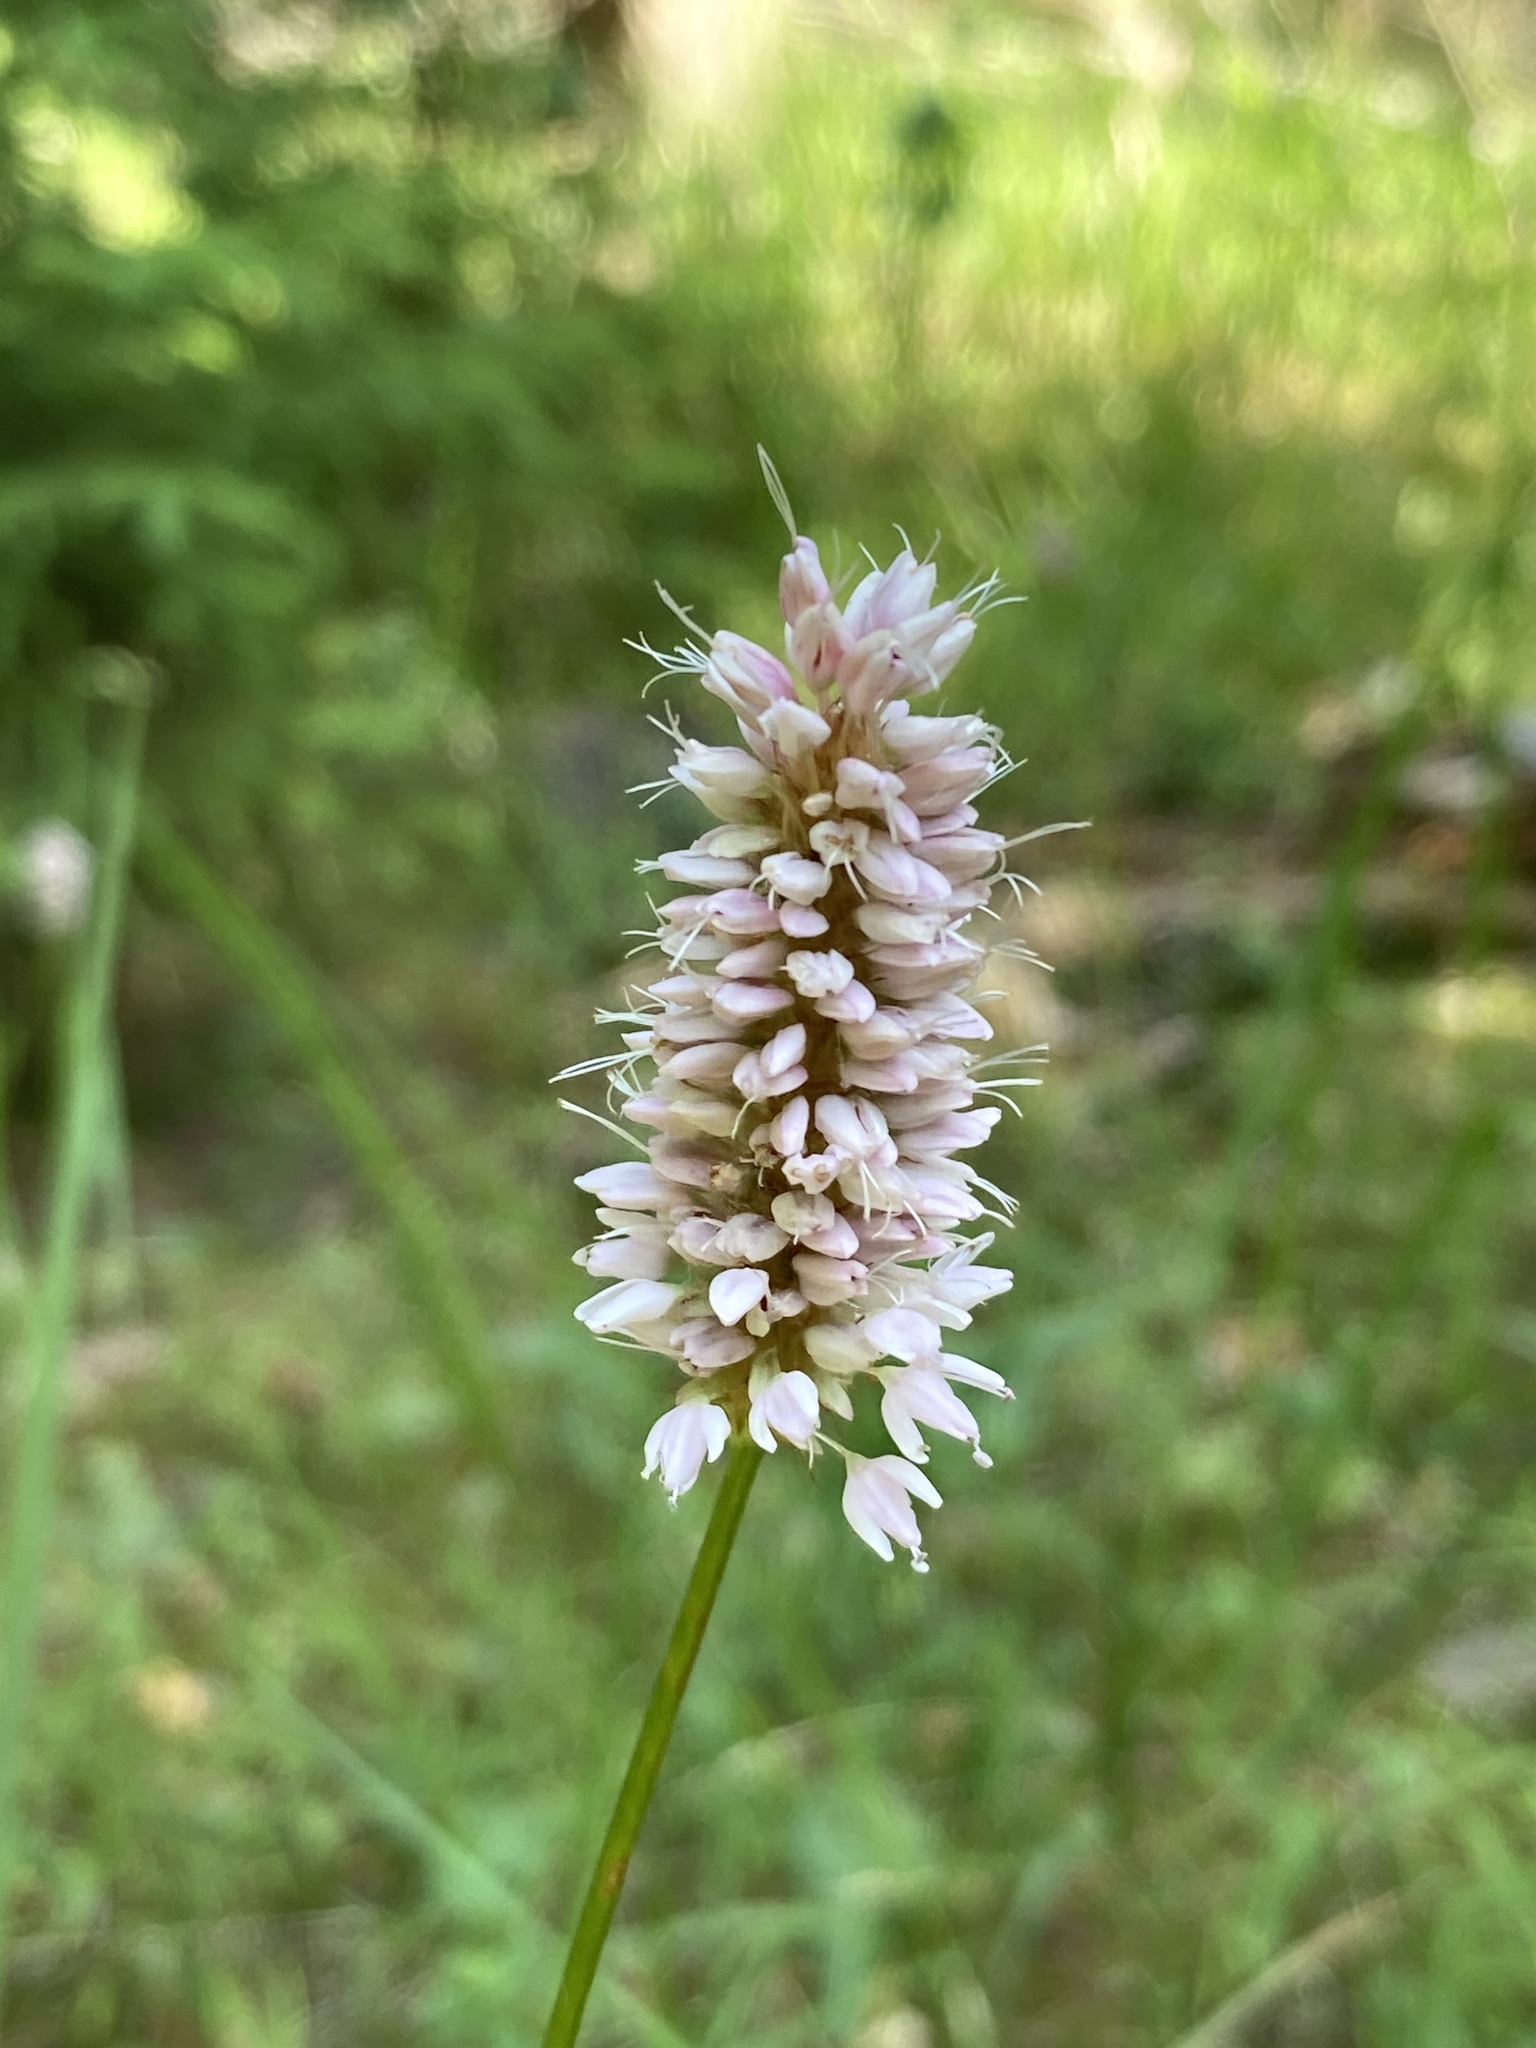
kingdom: Plantae
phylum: Tracheophyta
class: Magnoliopsida
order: Caryophyllales
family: Polygonaceae
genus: Bistorta
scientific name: Bistorta officinalis
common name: Common bistort
